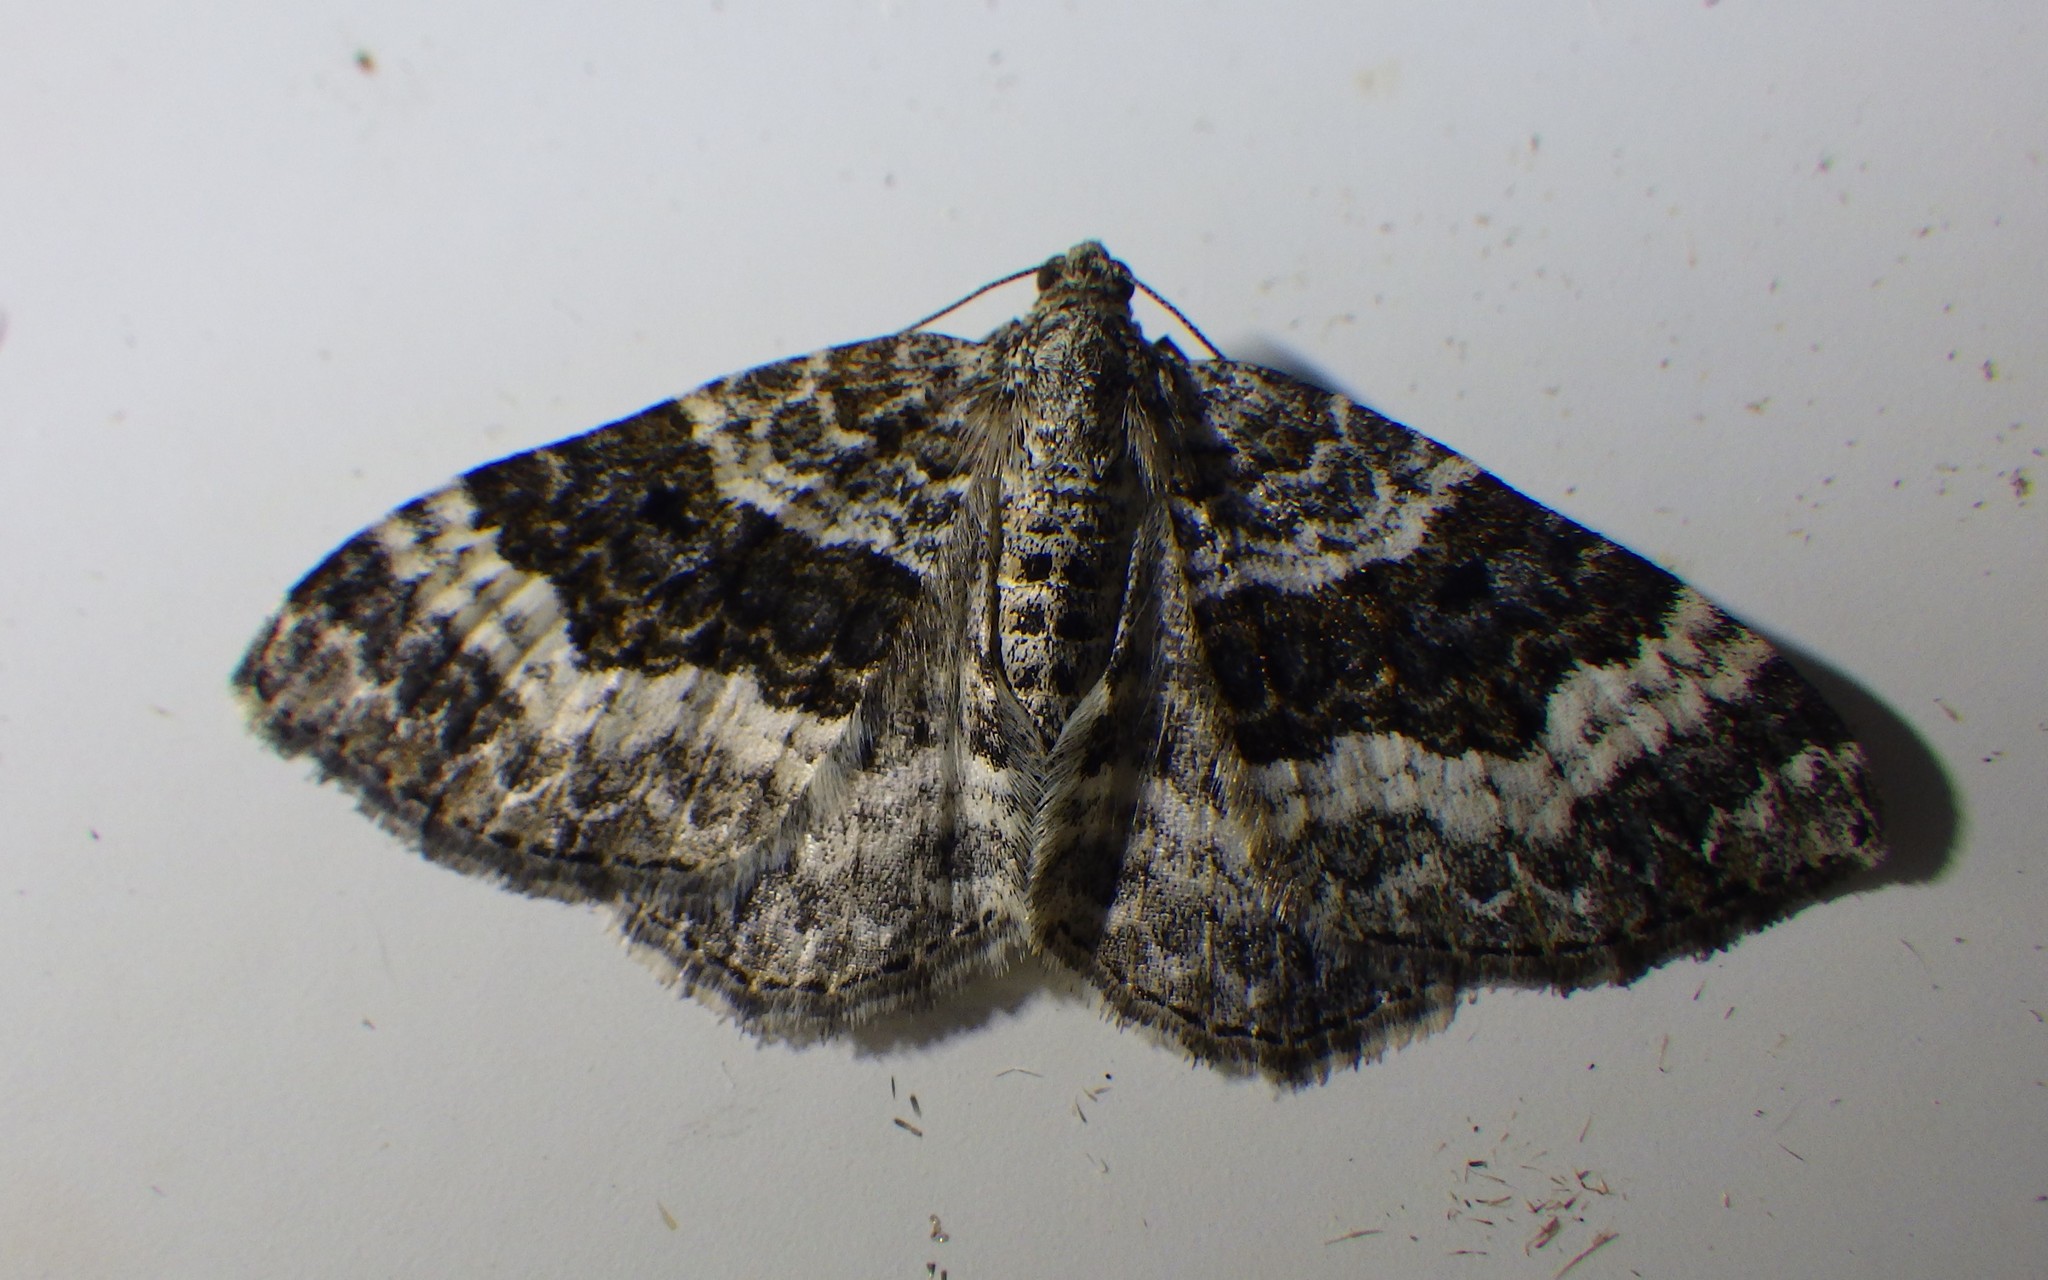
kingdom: Animalia
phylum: Arthropoda
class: Insecta
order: Lepidoptera
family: Geometridae
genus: Epirrhoe
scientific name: Epirrhoe alternata
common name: Common carpet
